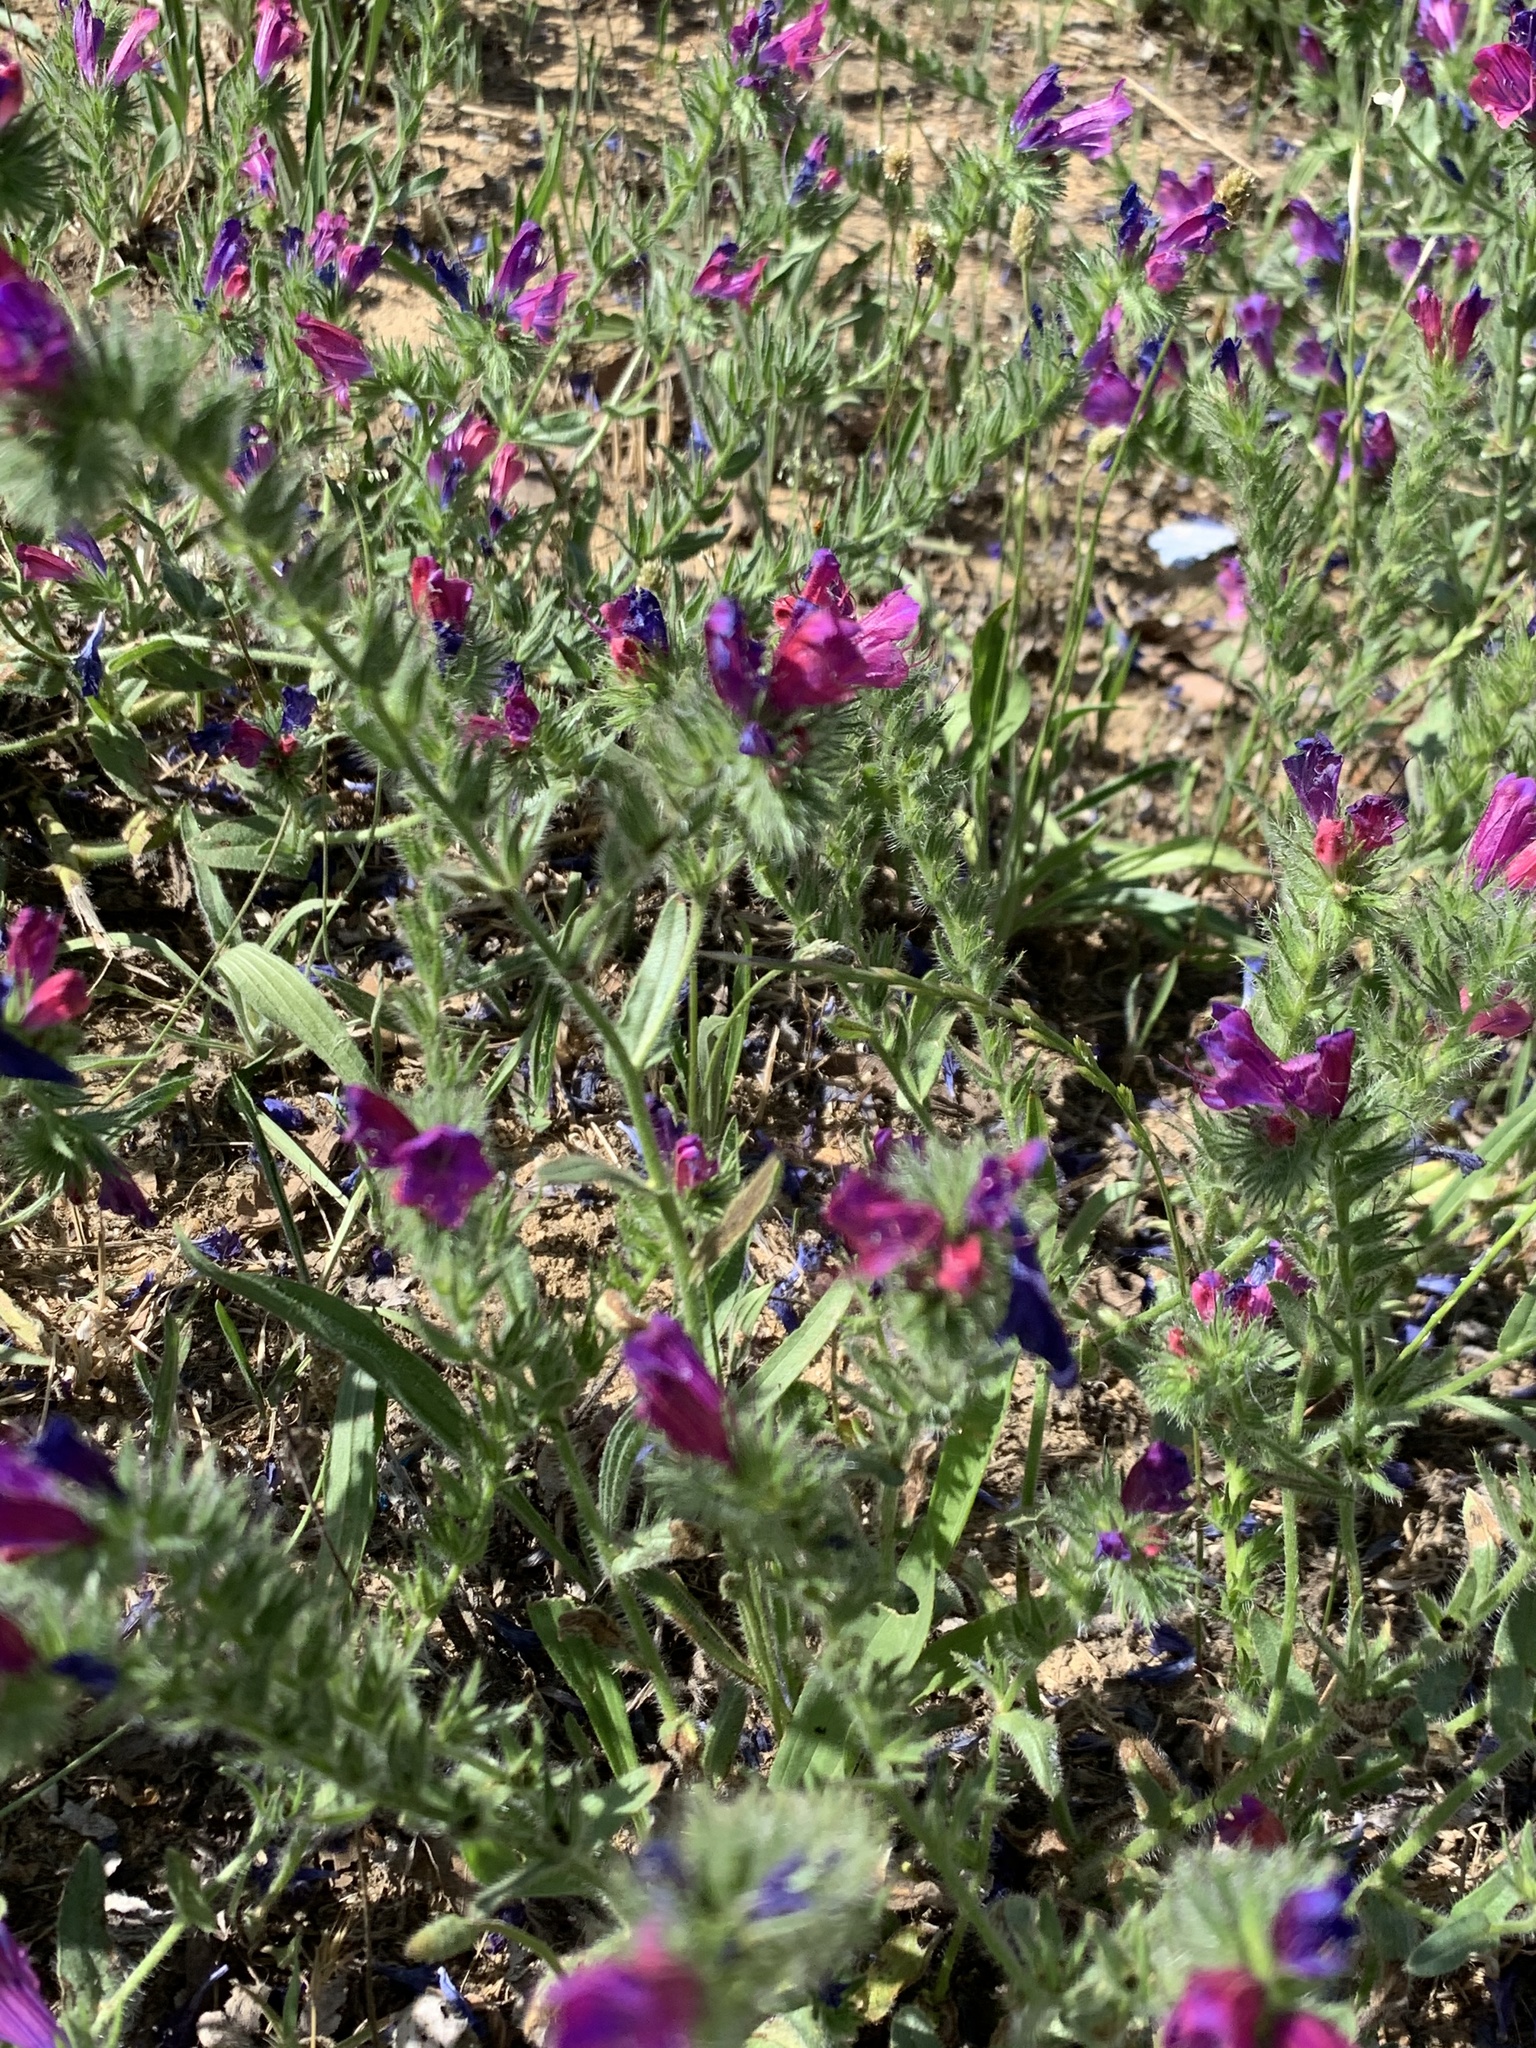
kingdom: Plantae
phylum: Tracheophyta
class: Magnoliopsida
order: Boraginales
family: Boraginaceae
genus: Echium
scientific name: Echium plantagineum
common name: Purple viper's-bugloss
